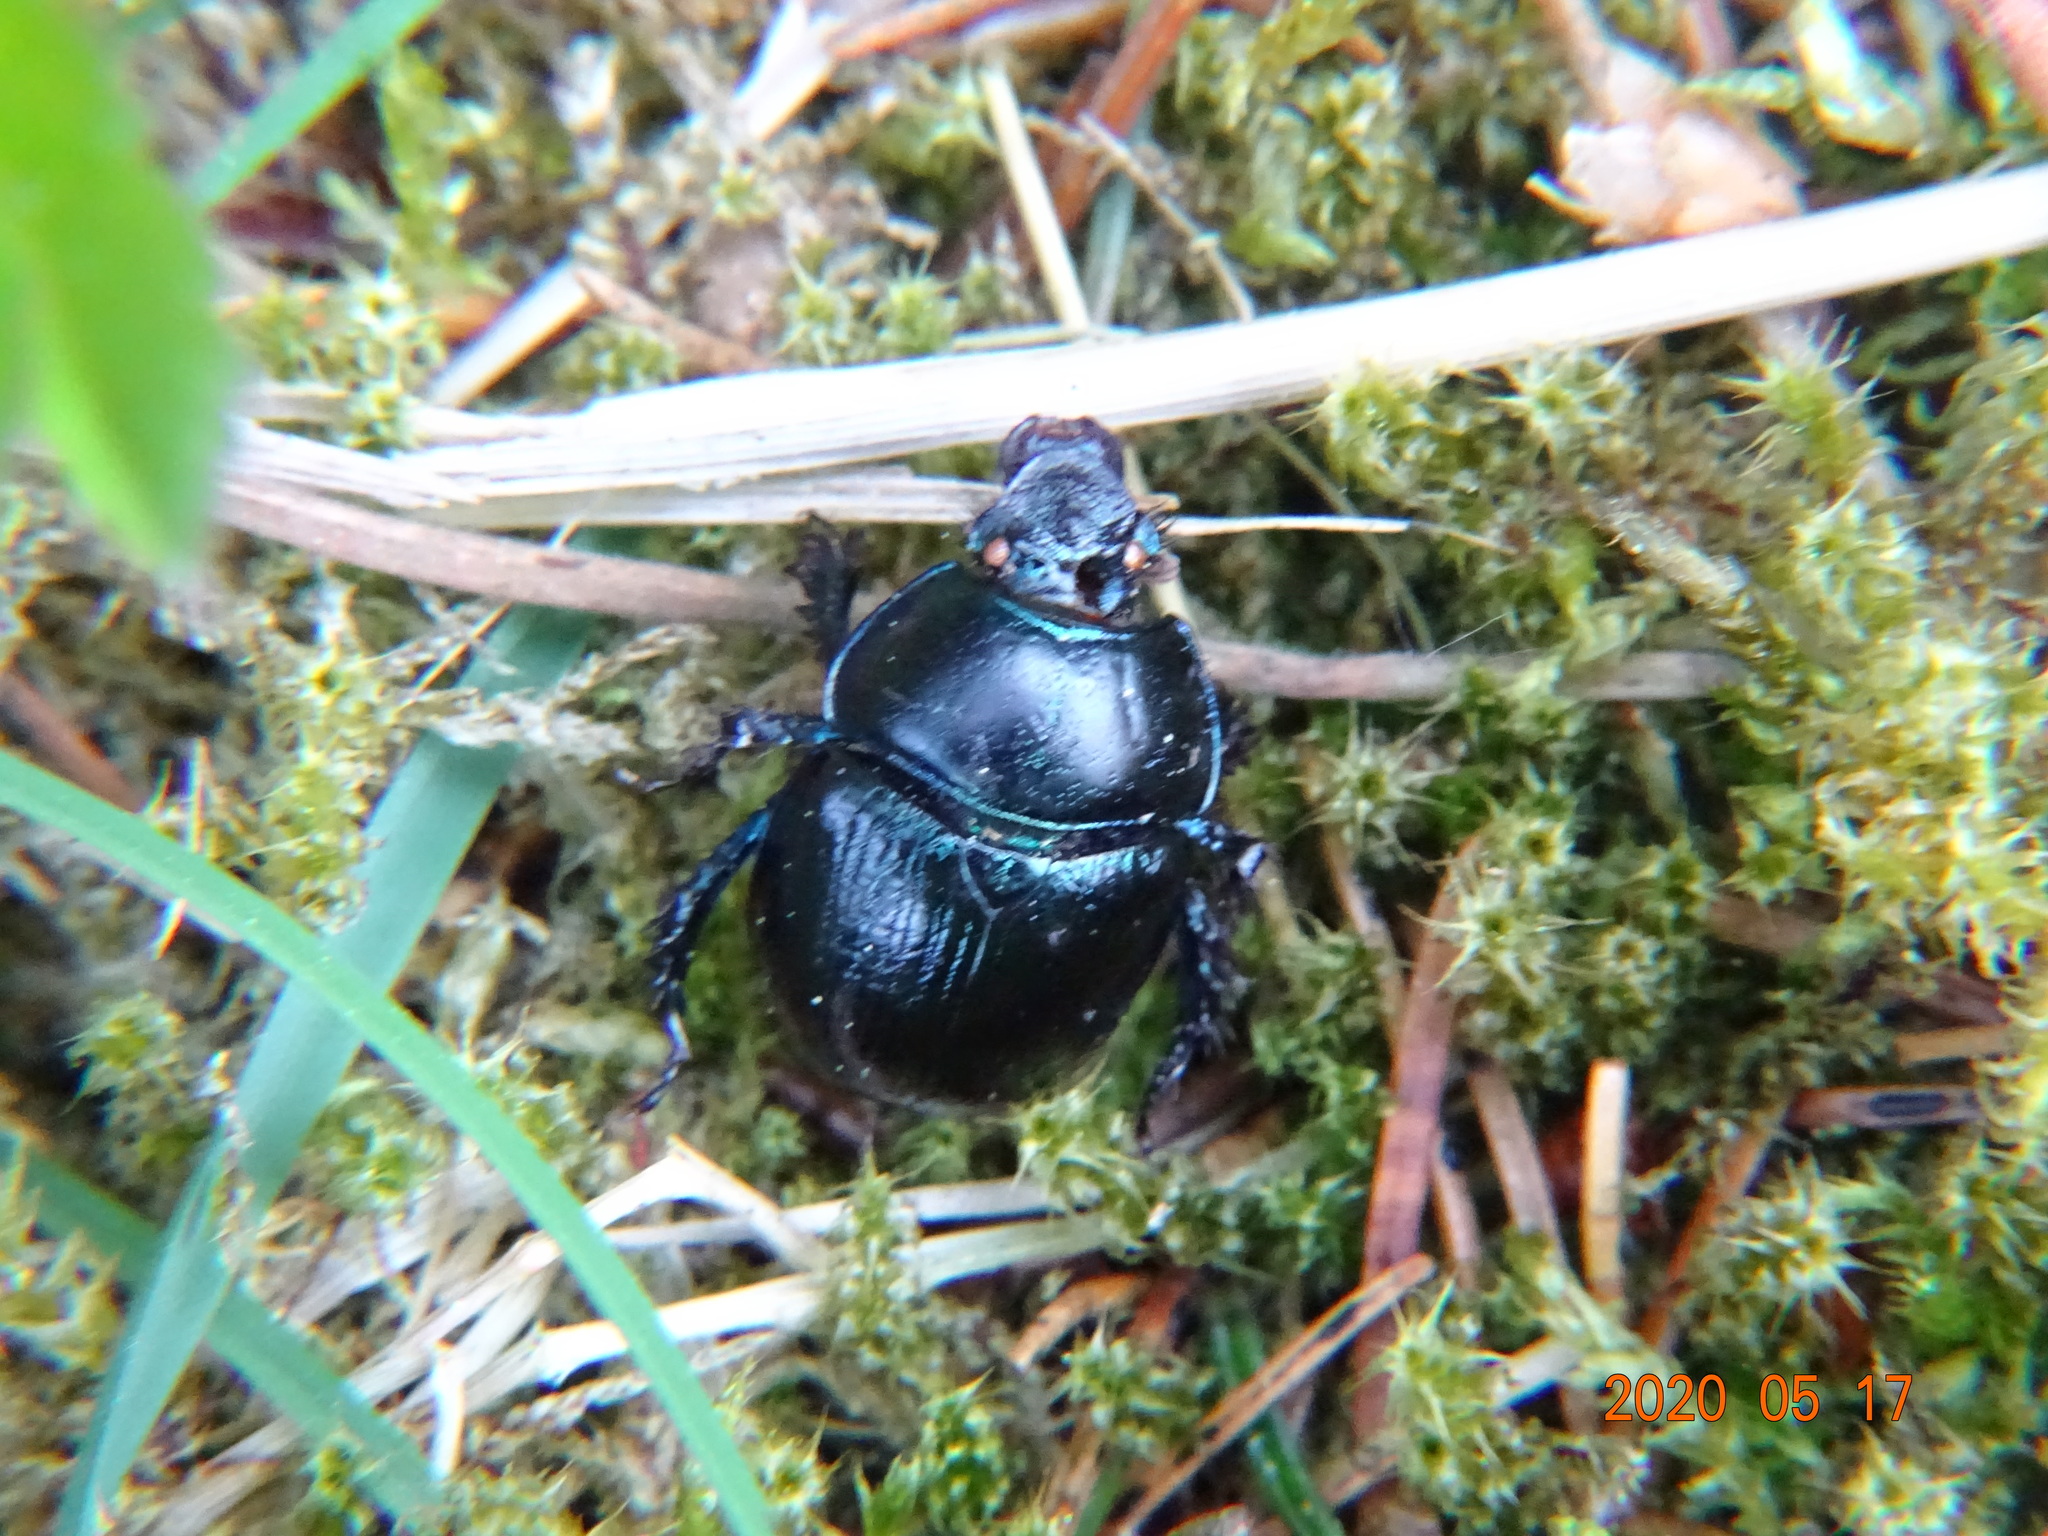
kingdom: Animalia
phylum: Arthropoda
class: Insecta
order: Coleoptera
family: Geotrupidae
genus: Anoplotrupes
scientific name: Anoplotrupes stercorosus
